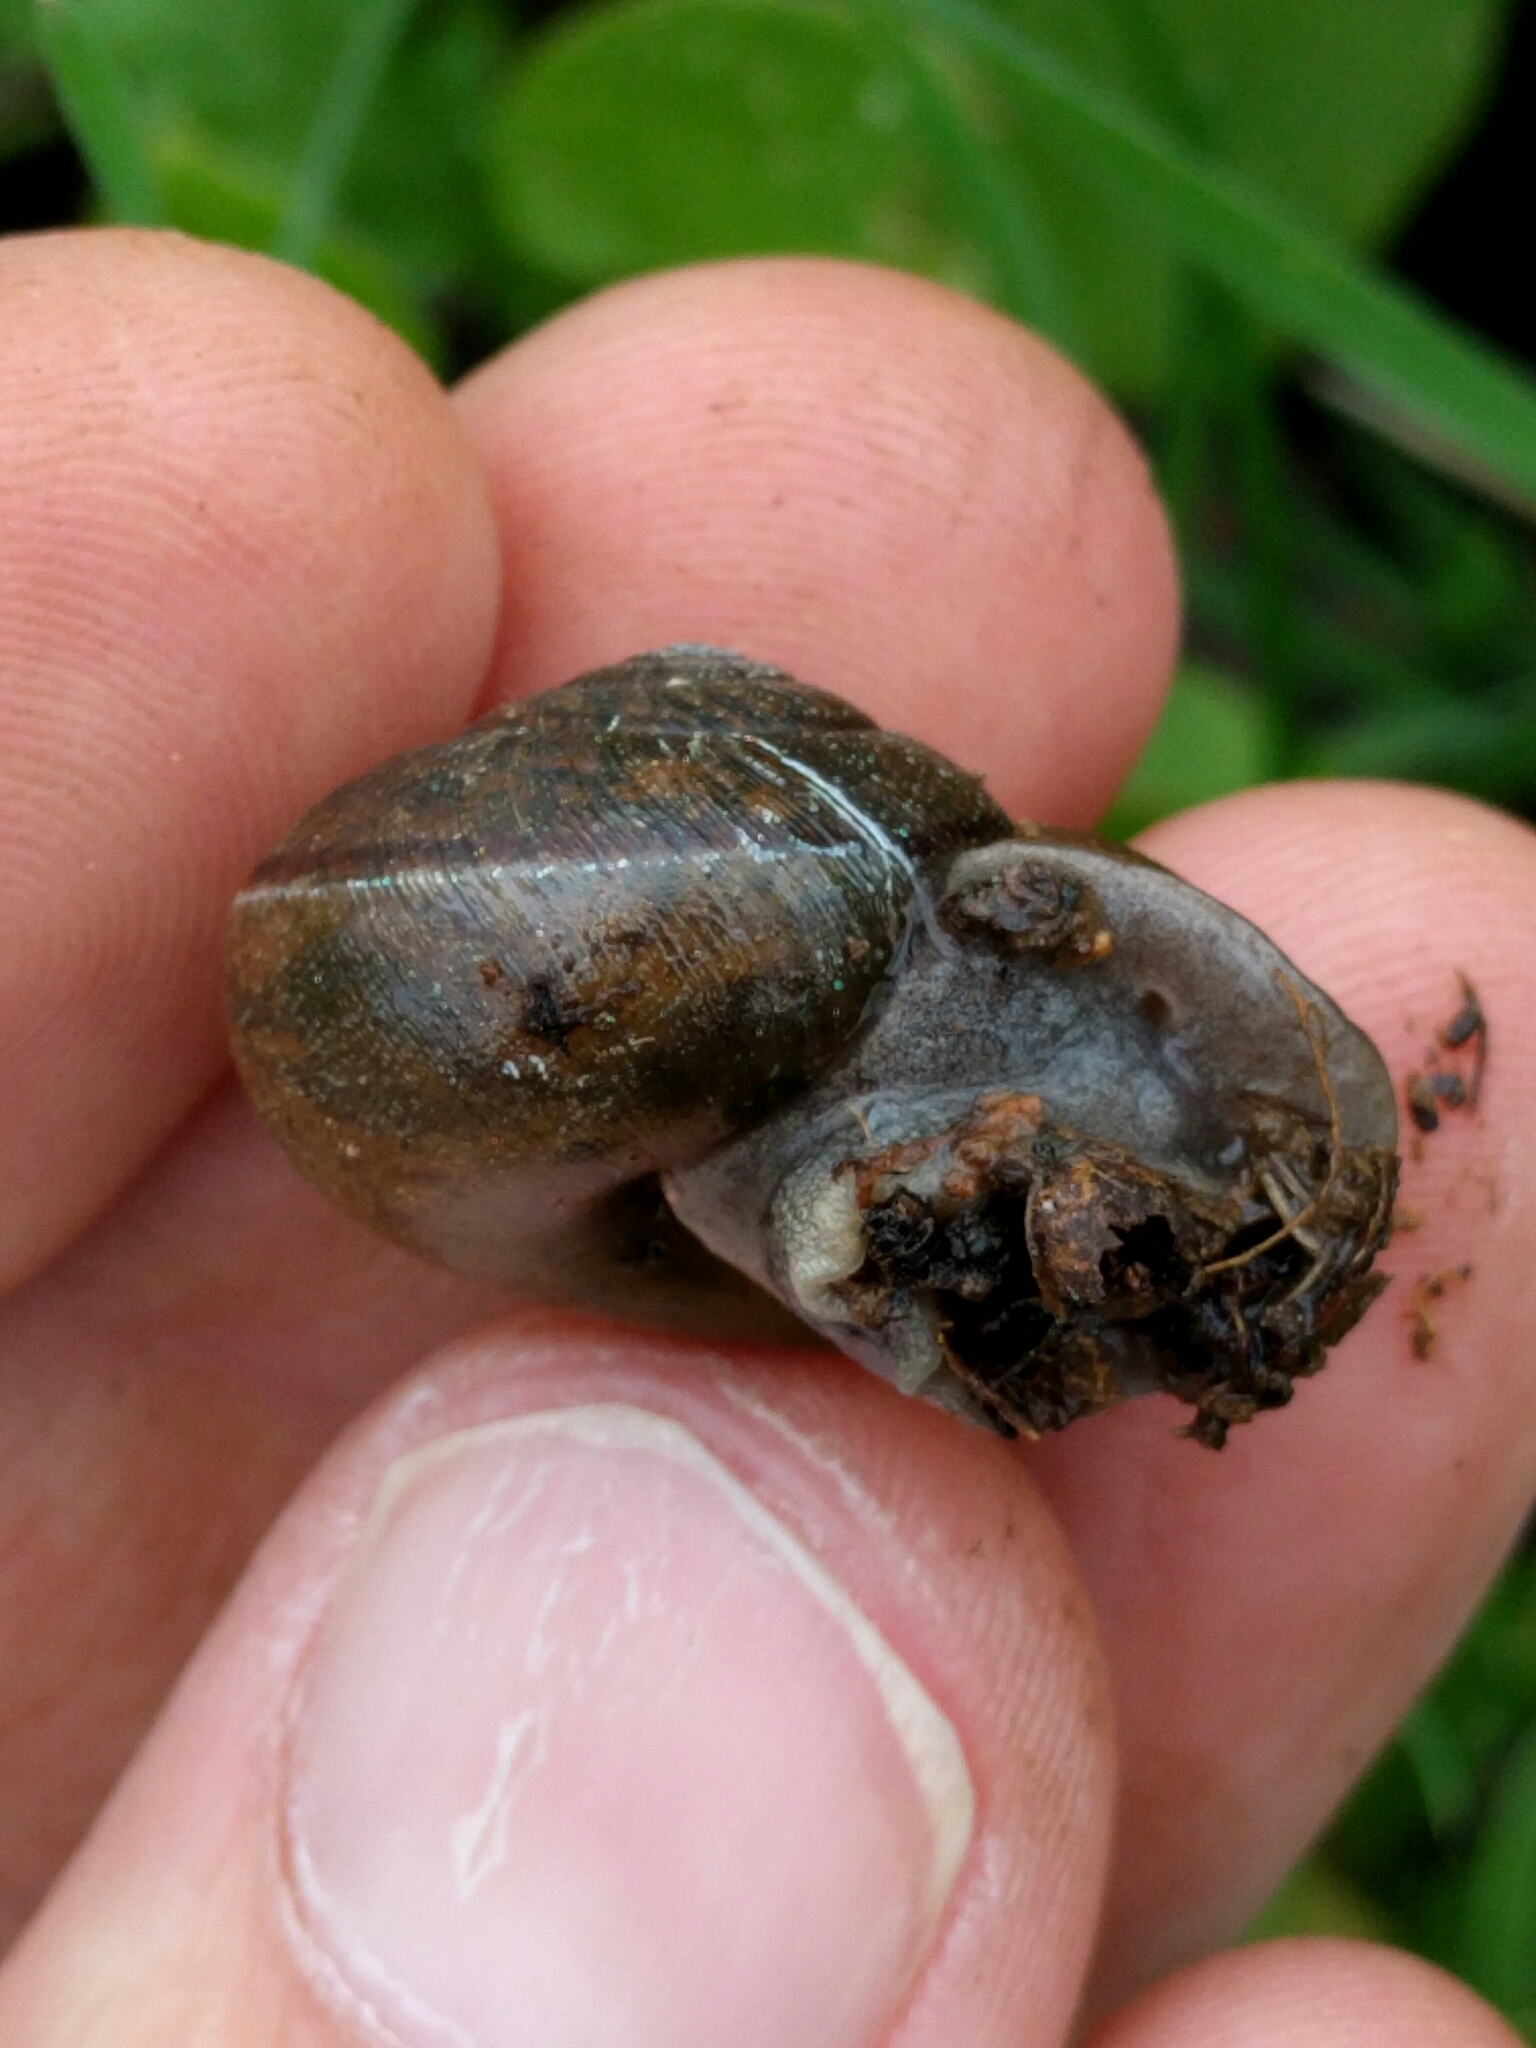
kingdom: Animalia
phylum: Mollusca
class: Gastropoda
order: Stylommatophora
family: Xanthonychidae
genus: Helminthoglypta
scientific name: Helminthoglypta diabloensis
